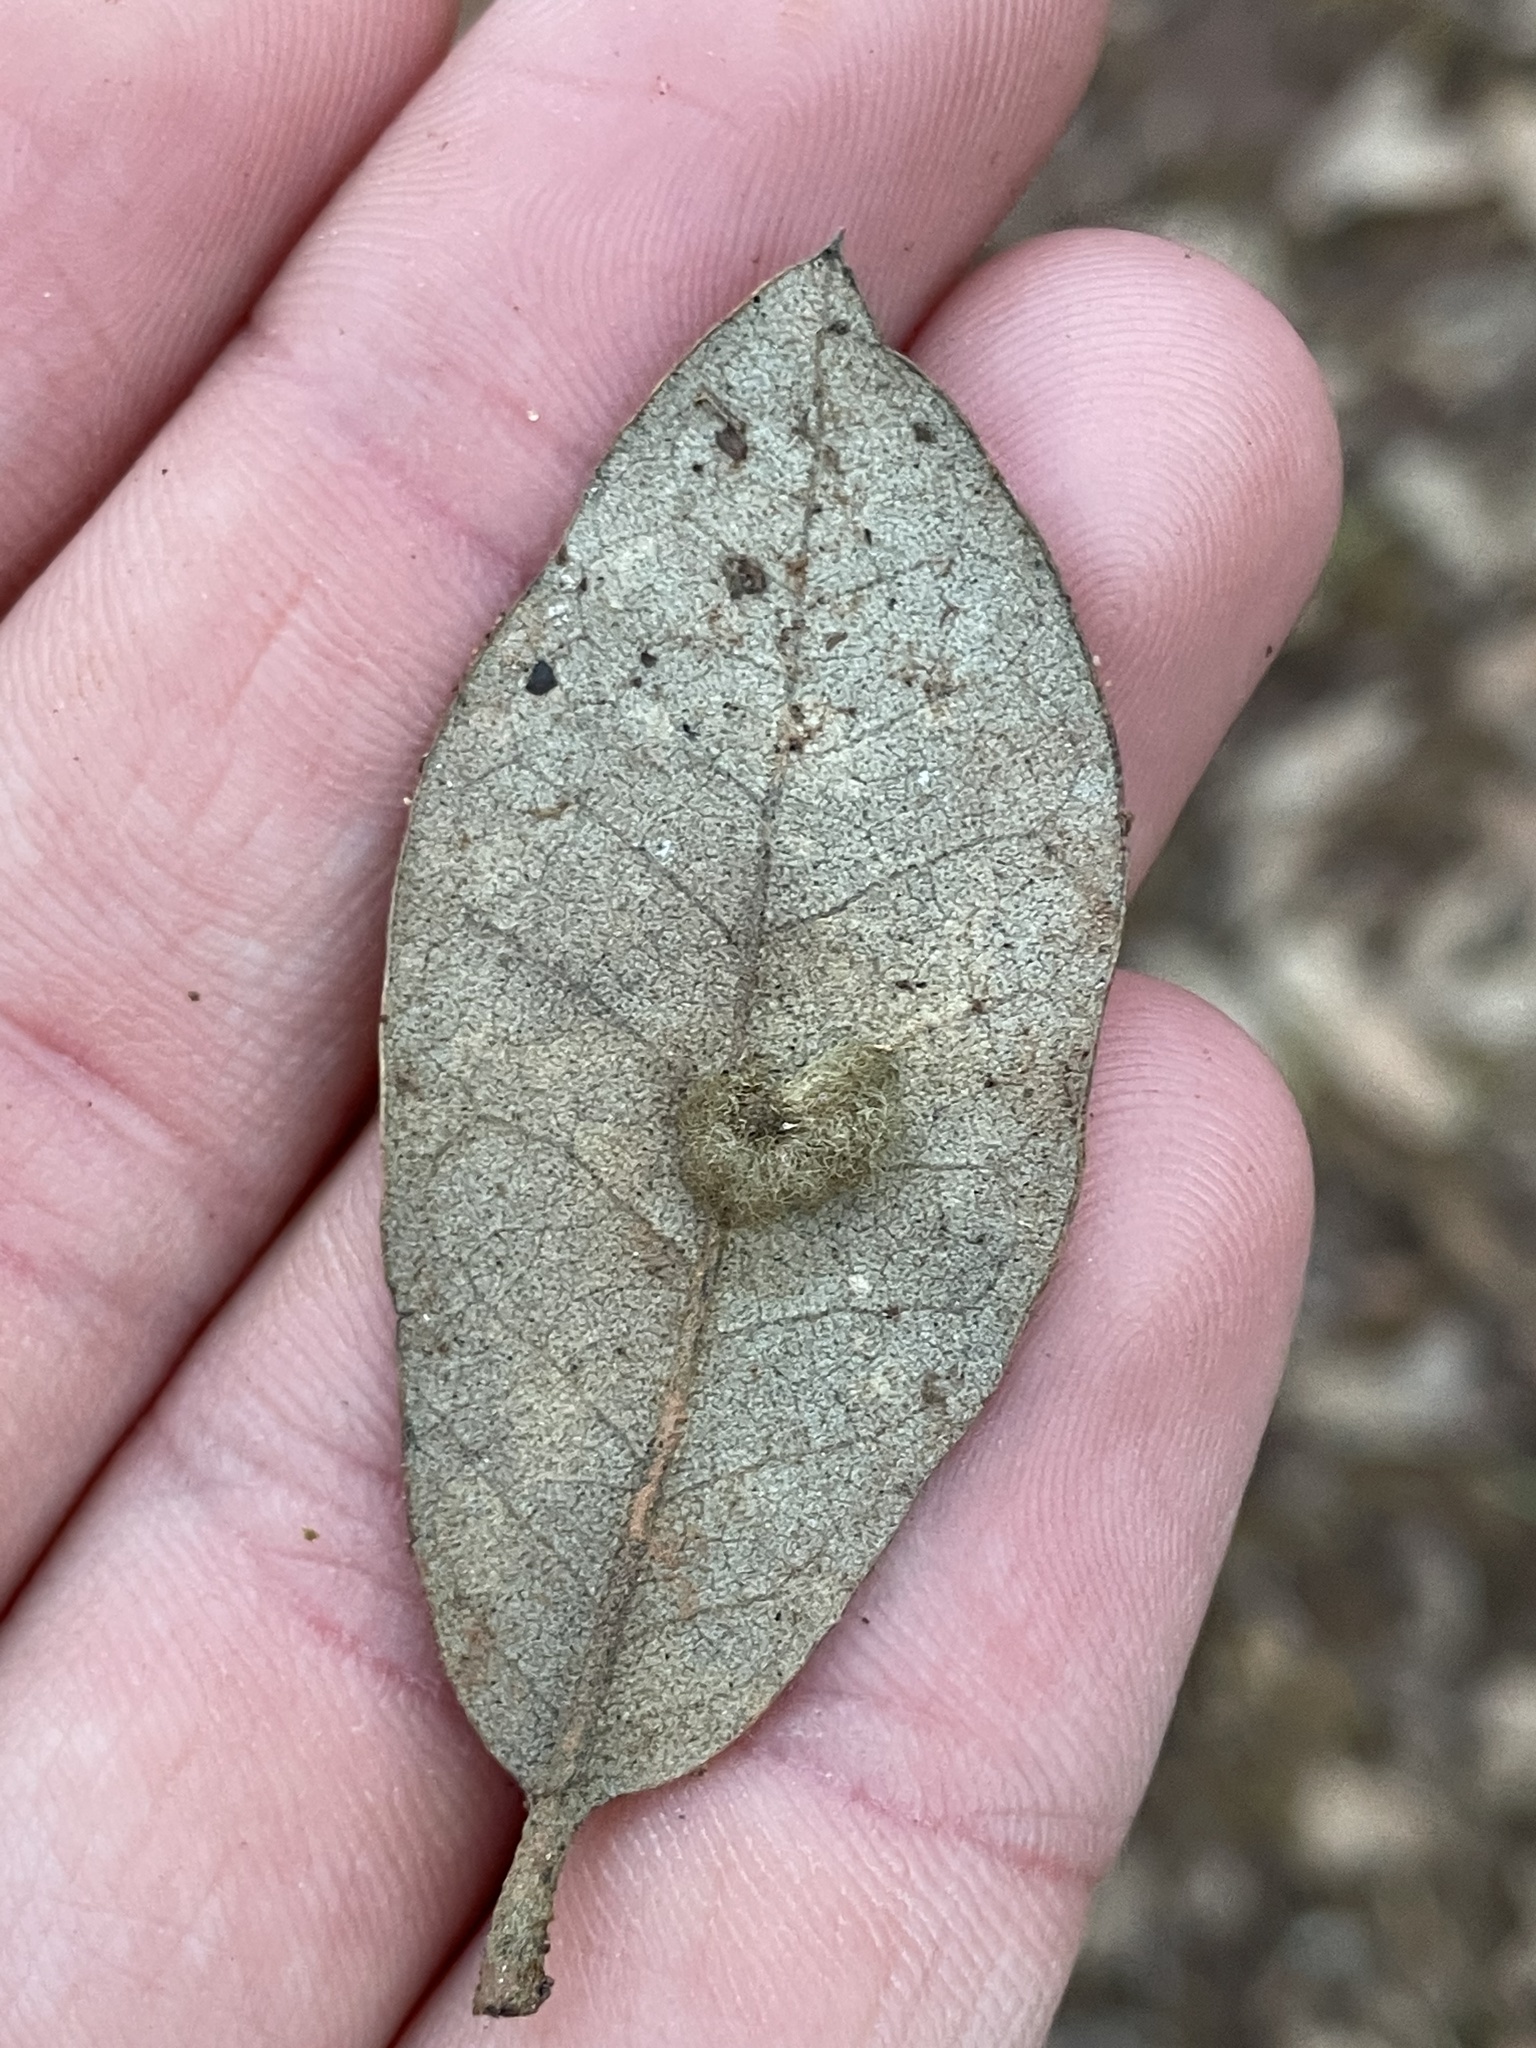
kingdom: Animalia
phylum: Arthropoda
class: Insecta
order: Hymenoptera
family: Cynipidae
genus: Andricus
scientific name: Andricus Druon quercuslanigerum
